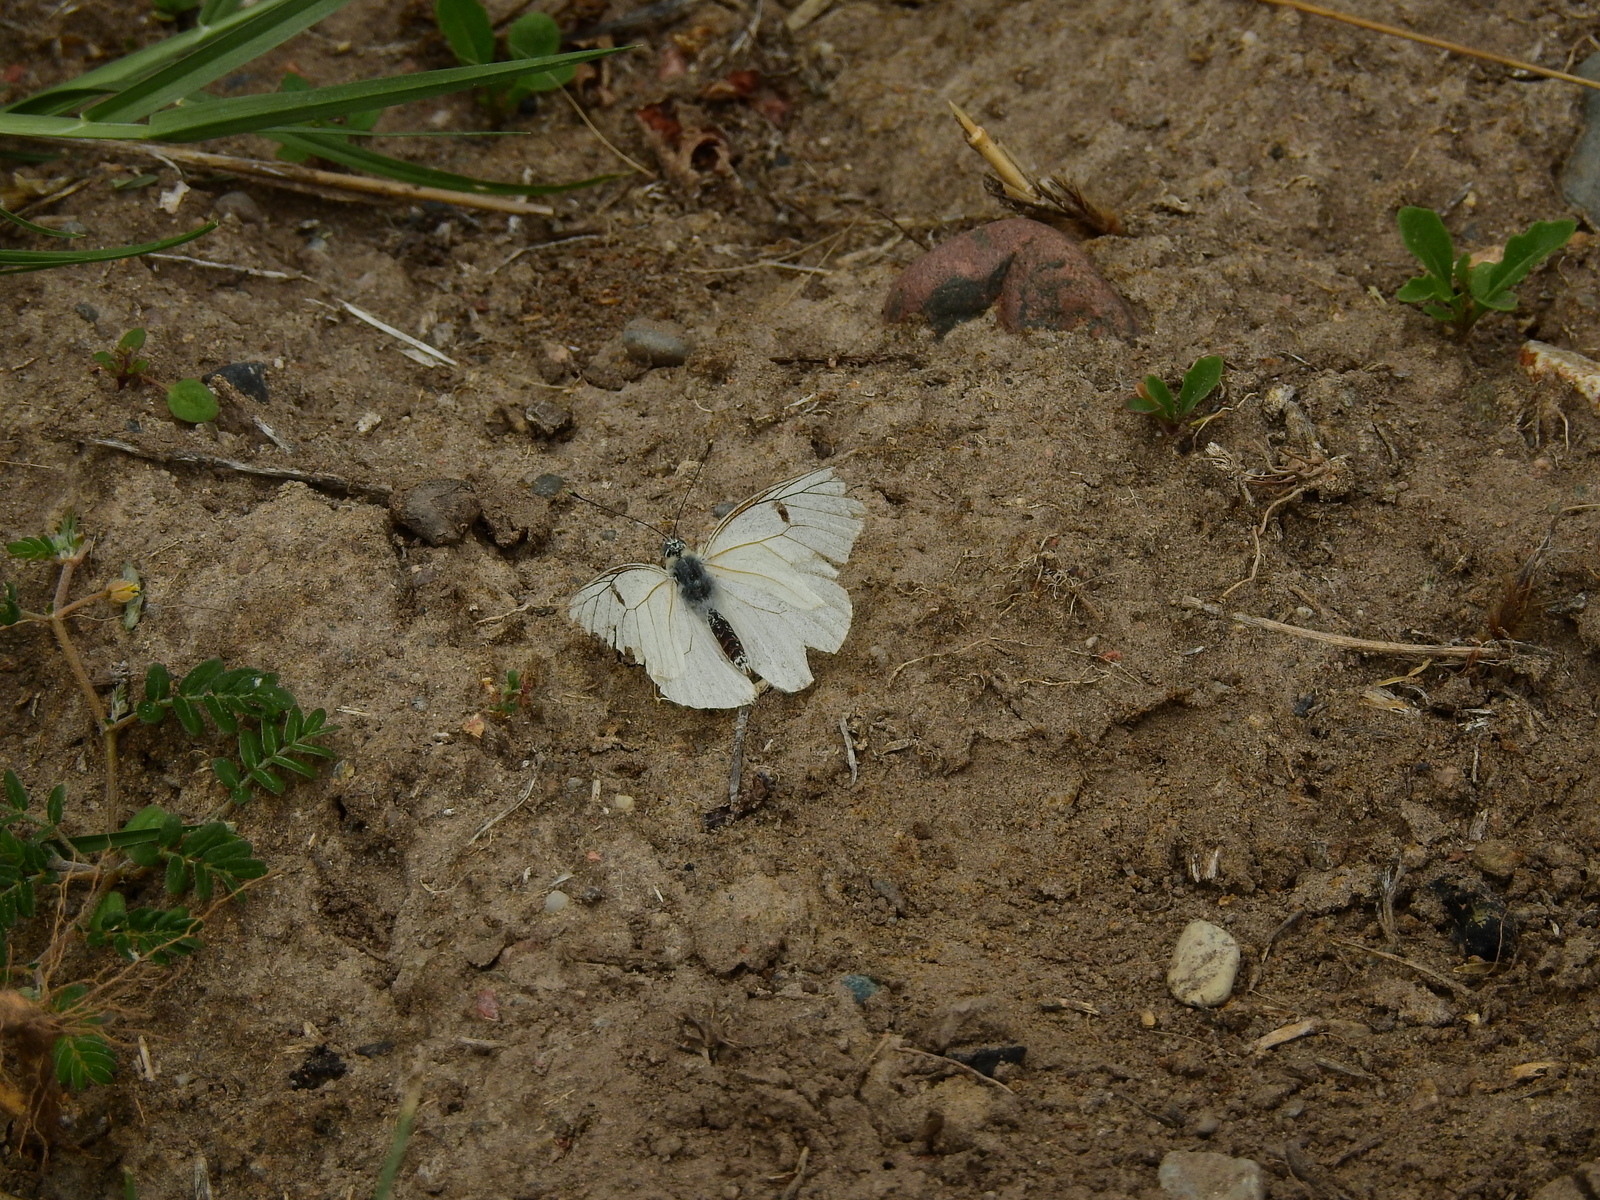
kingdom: Animalia
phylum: Arthropoda
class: Insecta
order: Lepidoptera
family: Pieridae
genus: Tatochila
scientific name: Tatochila mercedis
